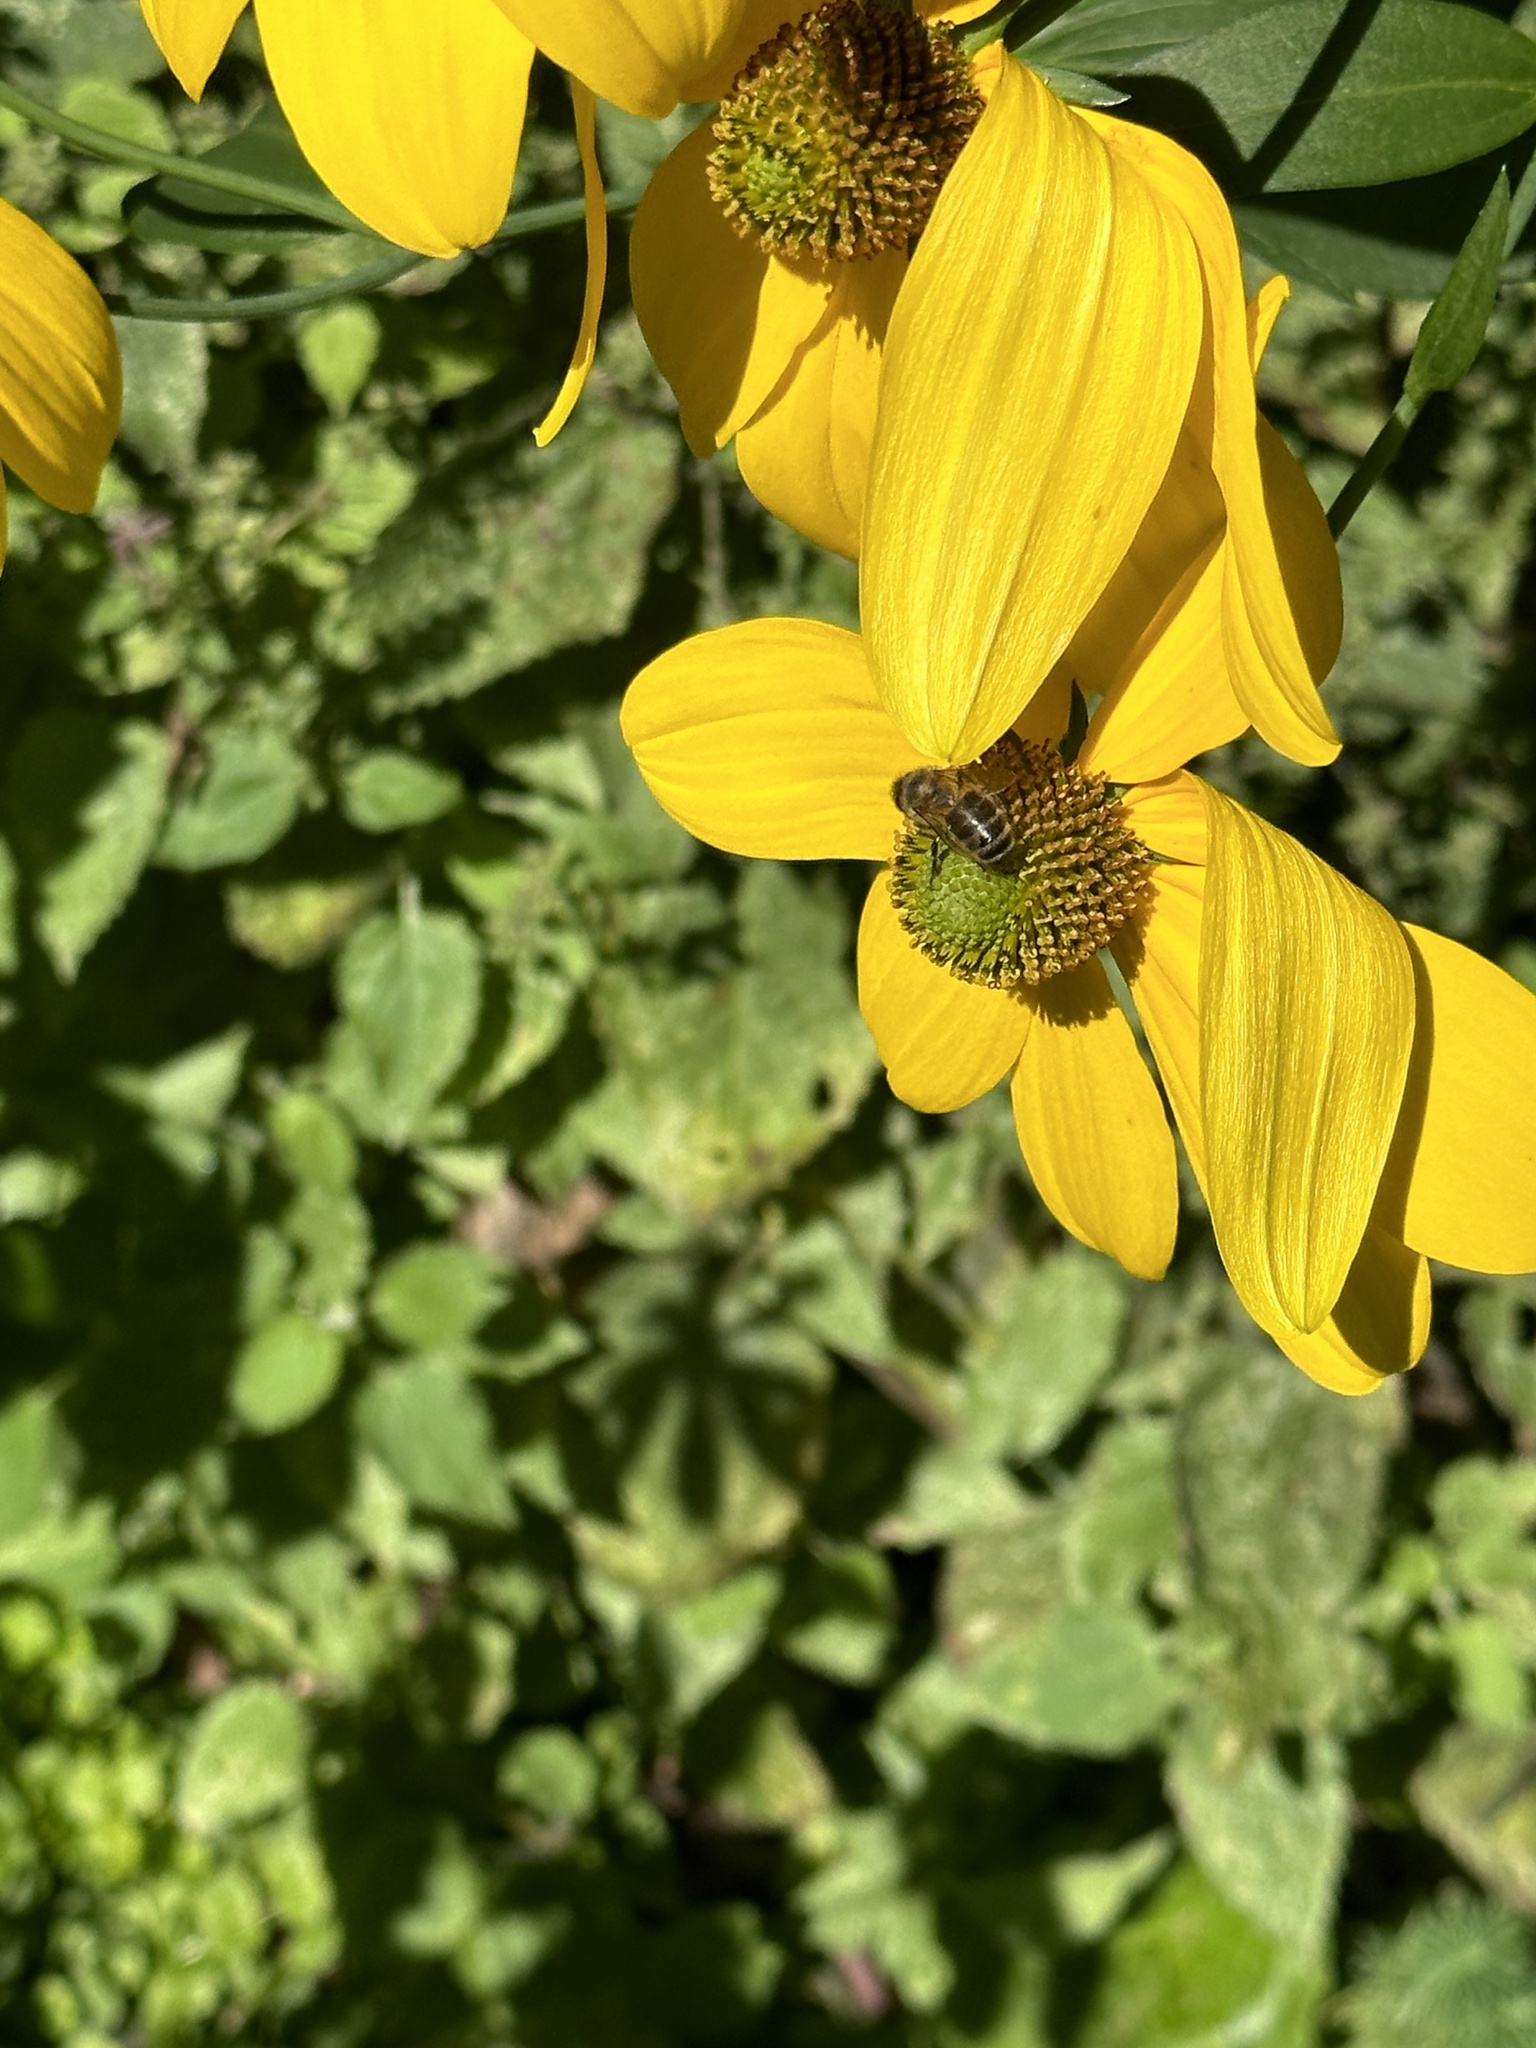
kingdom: Animalia
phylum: Arthropoda
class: Insecta
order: Hymenoptera
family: Apidae
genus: Apis
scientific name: Apis mellifera
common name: Honey bee
